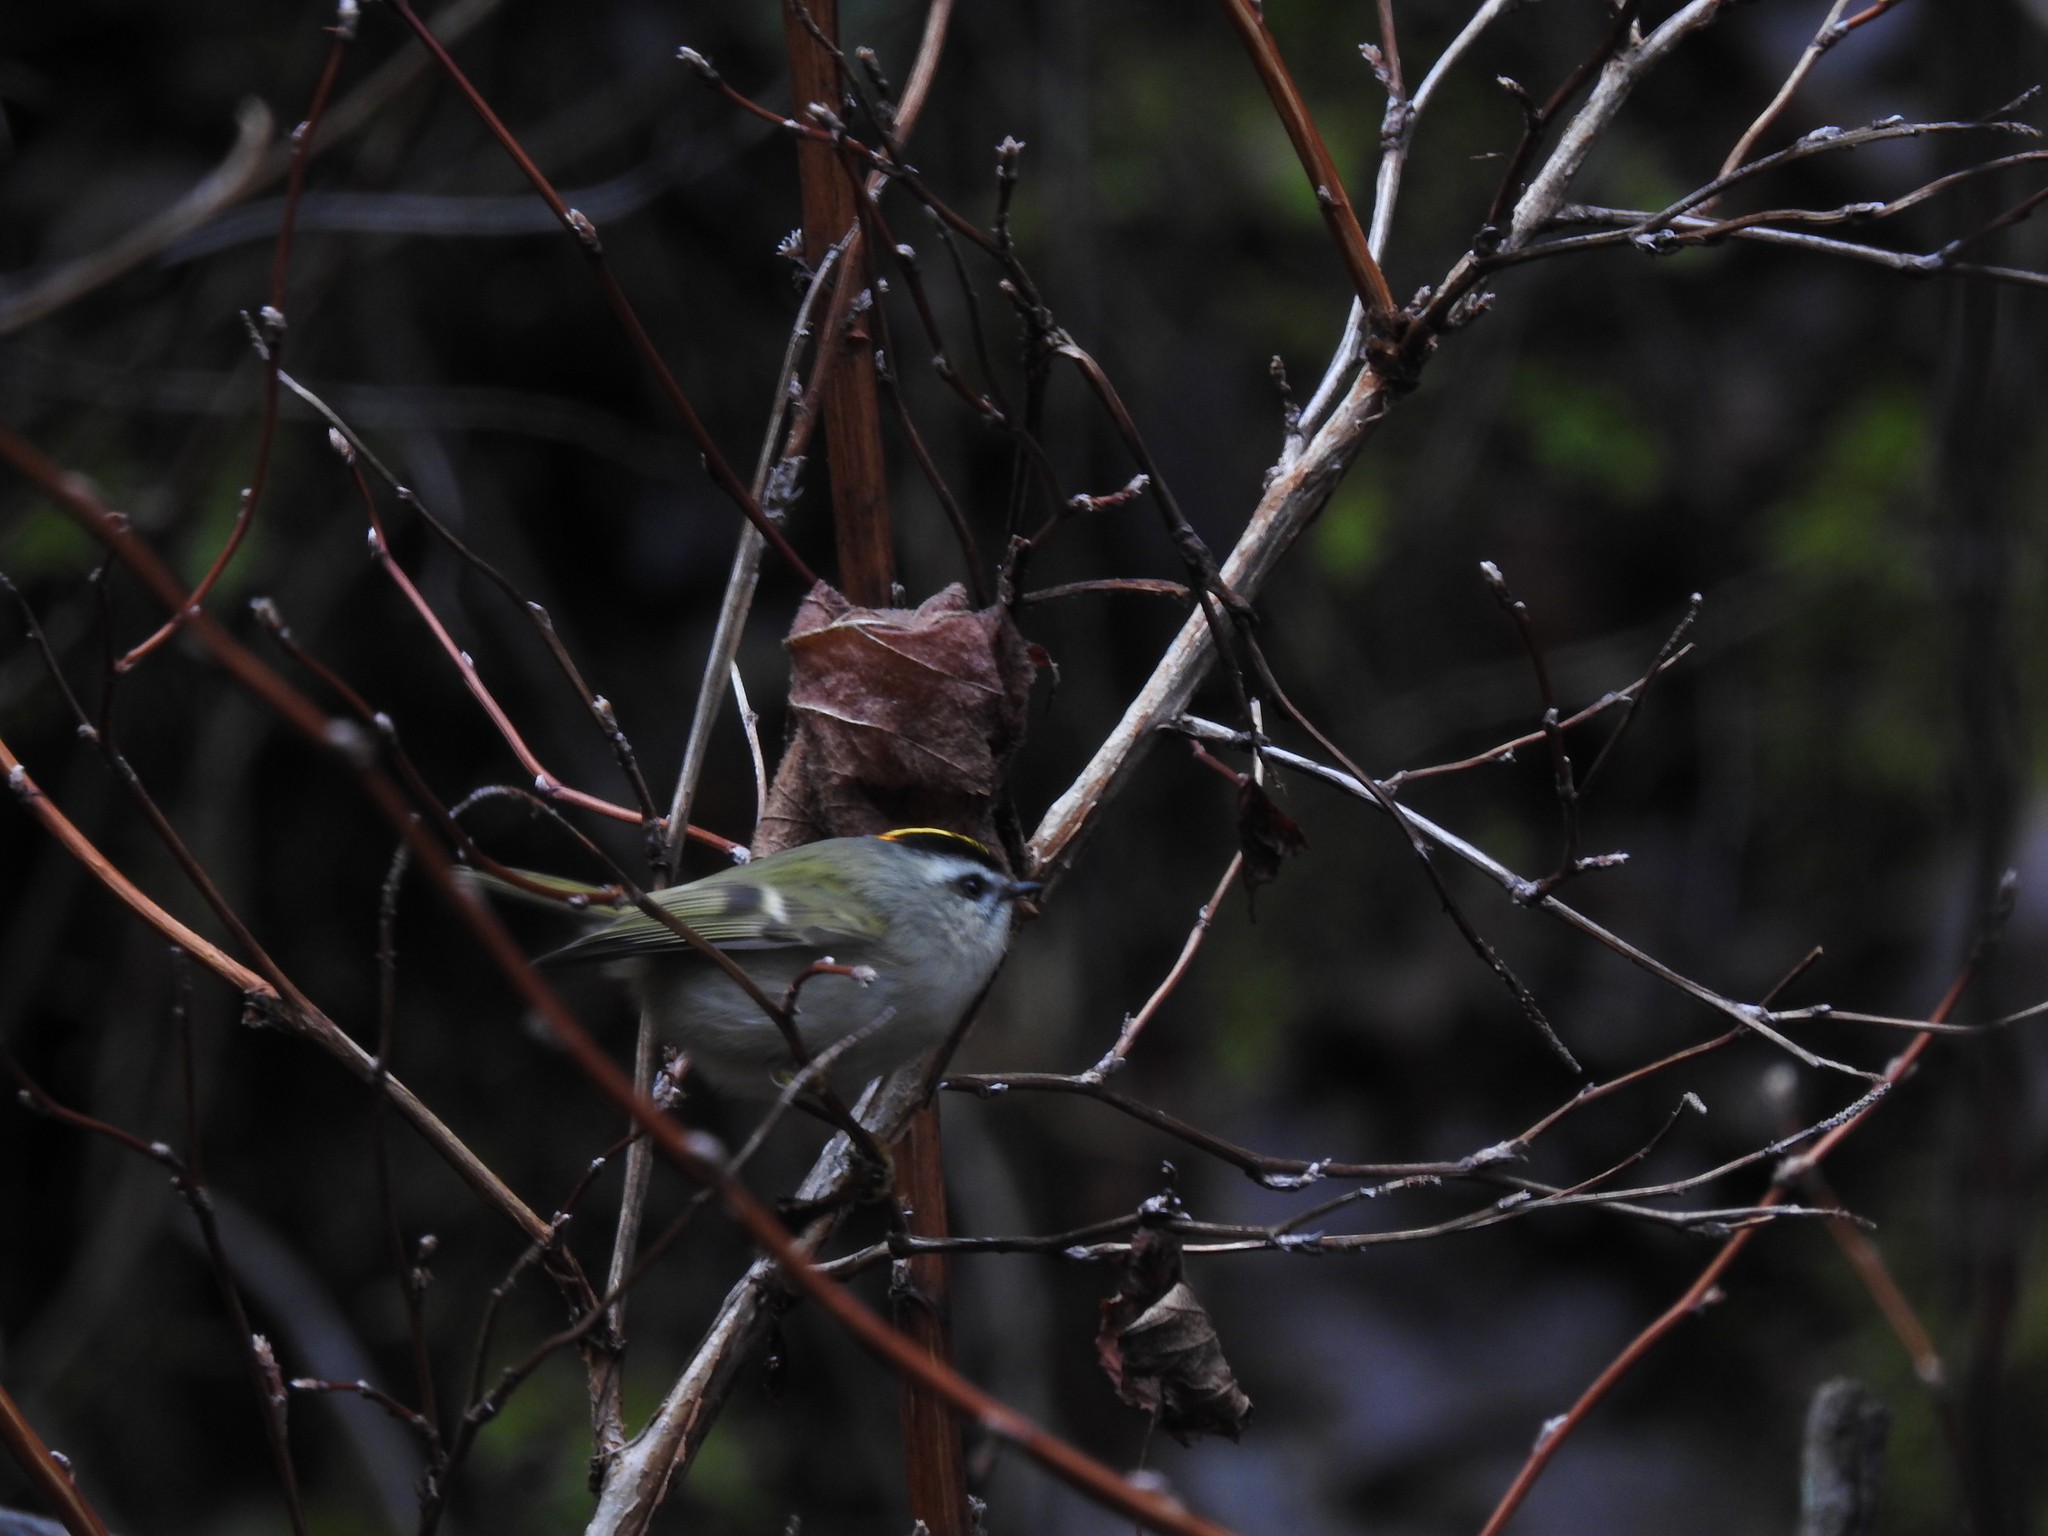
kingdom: Animalia
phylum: Chordata
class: Aves
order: Passeriformes
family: Regulidae
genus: Regulus
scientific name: Regulus satrapa
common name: Golden-crowned kinglet
